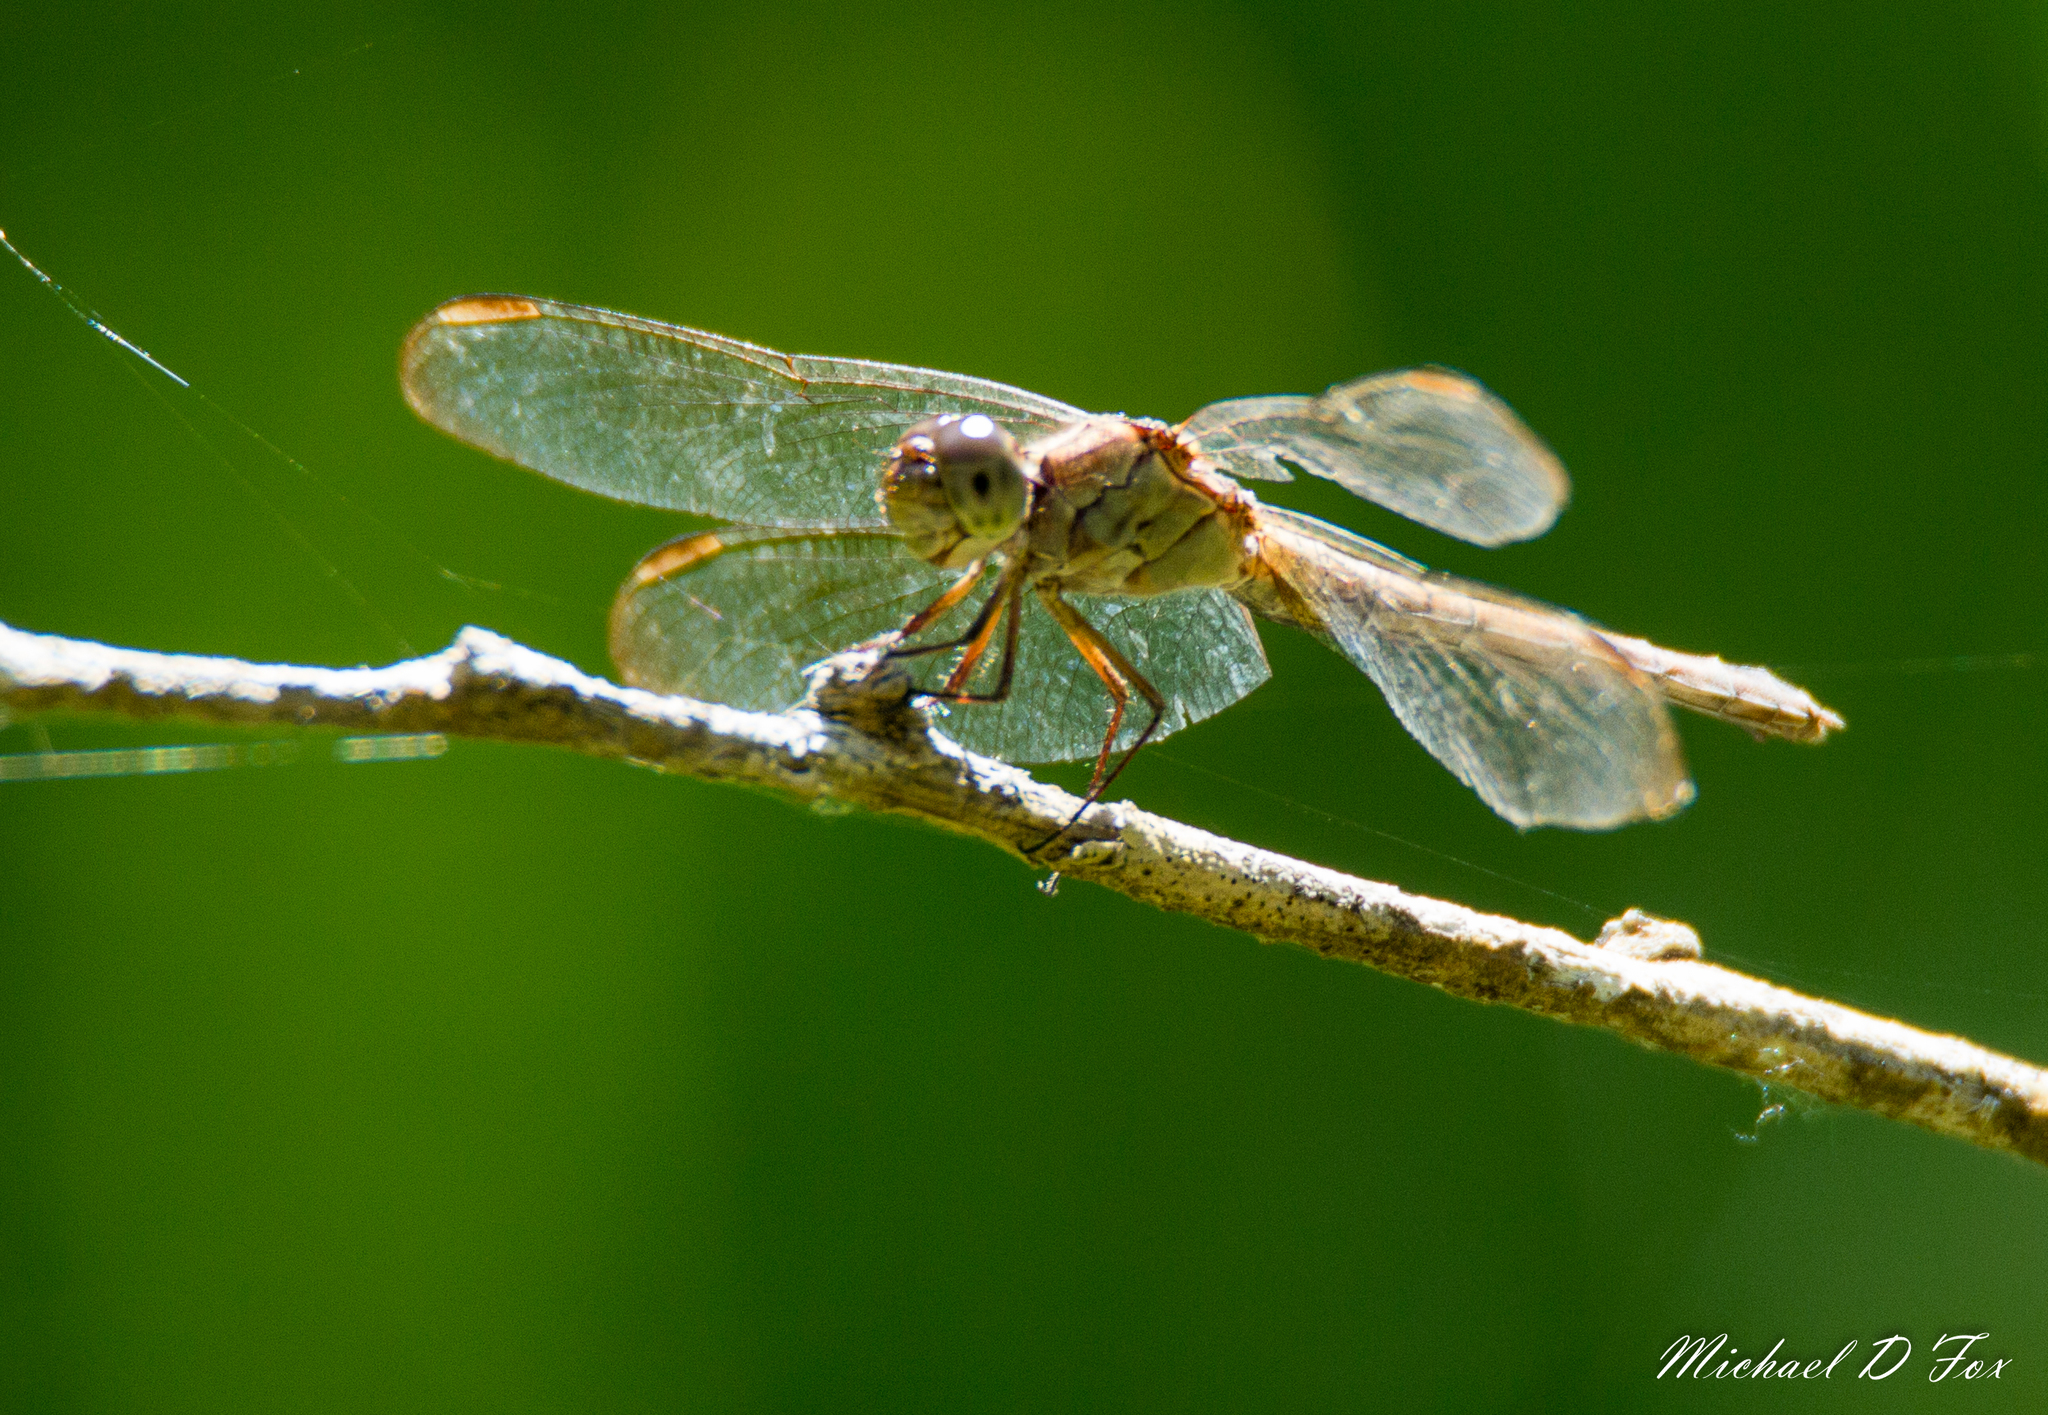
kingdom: Animalia
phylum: Arthropoda
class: Insecta
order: Odonata
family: Libellulidae
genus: Erythrodiplax
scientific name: Erythrodiplax umbrata
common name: Band-winged dragonlet
